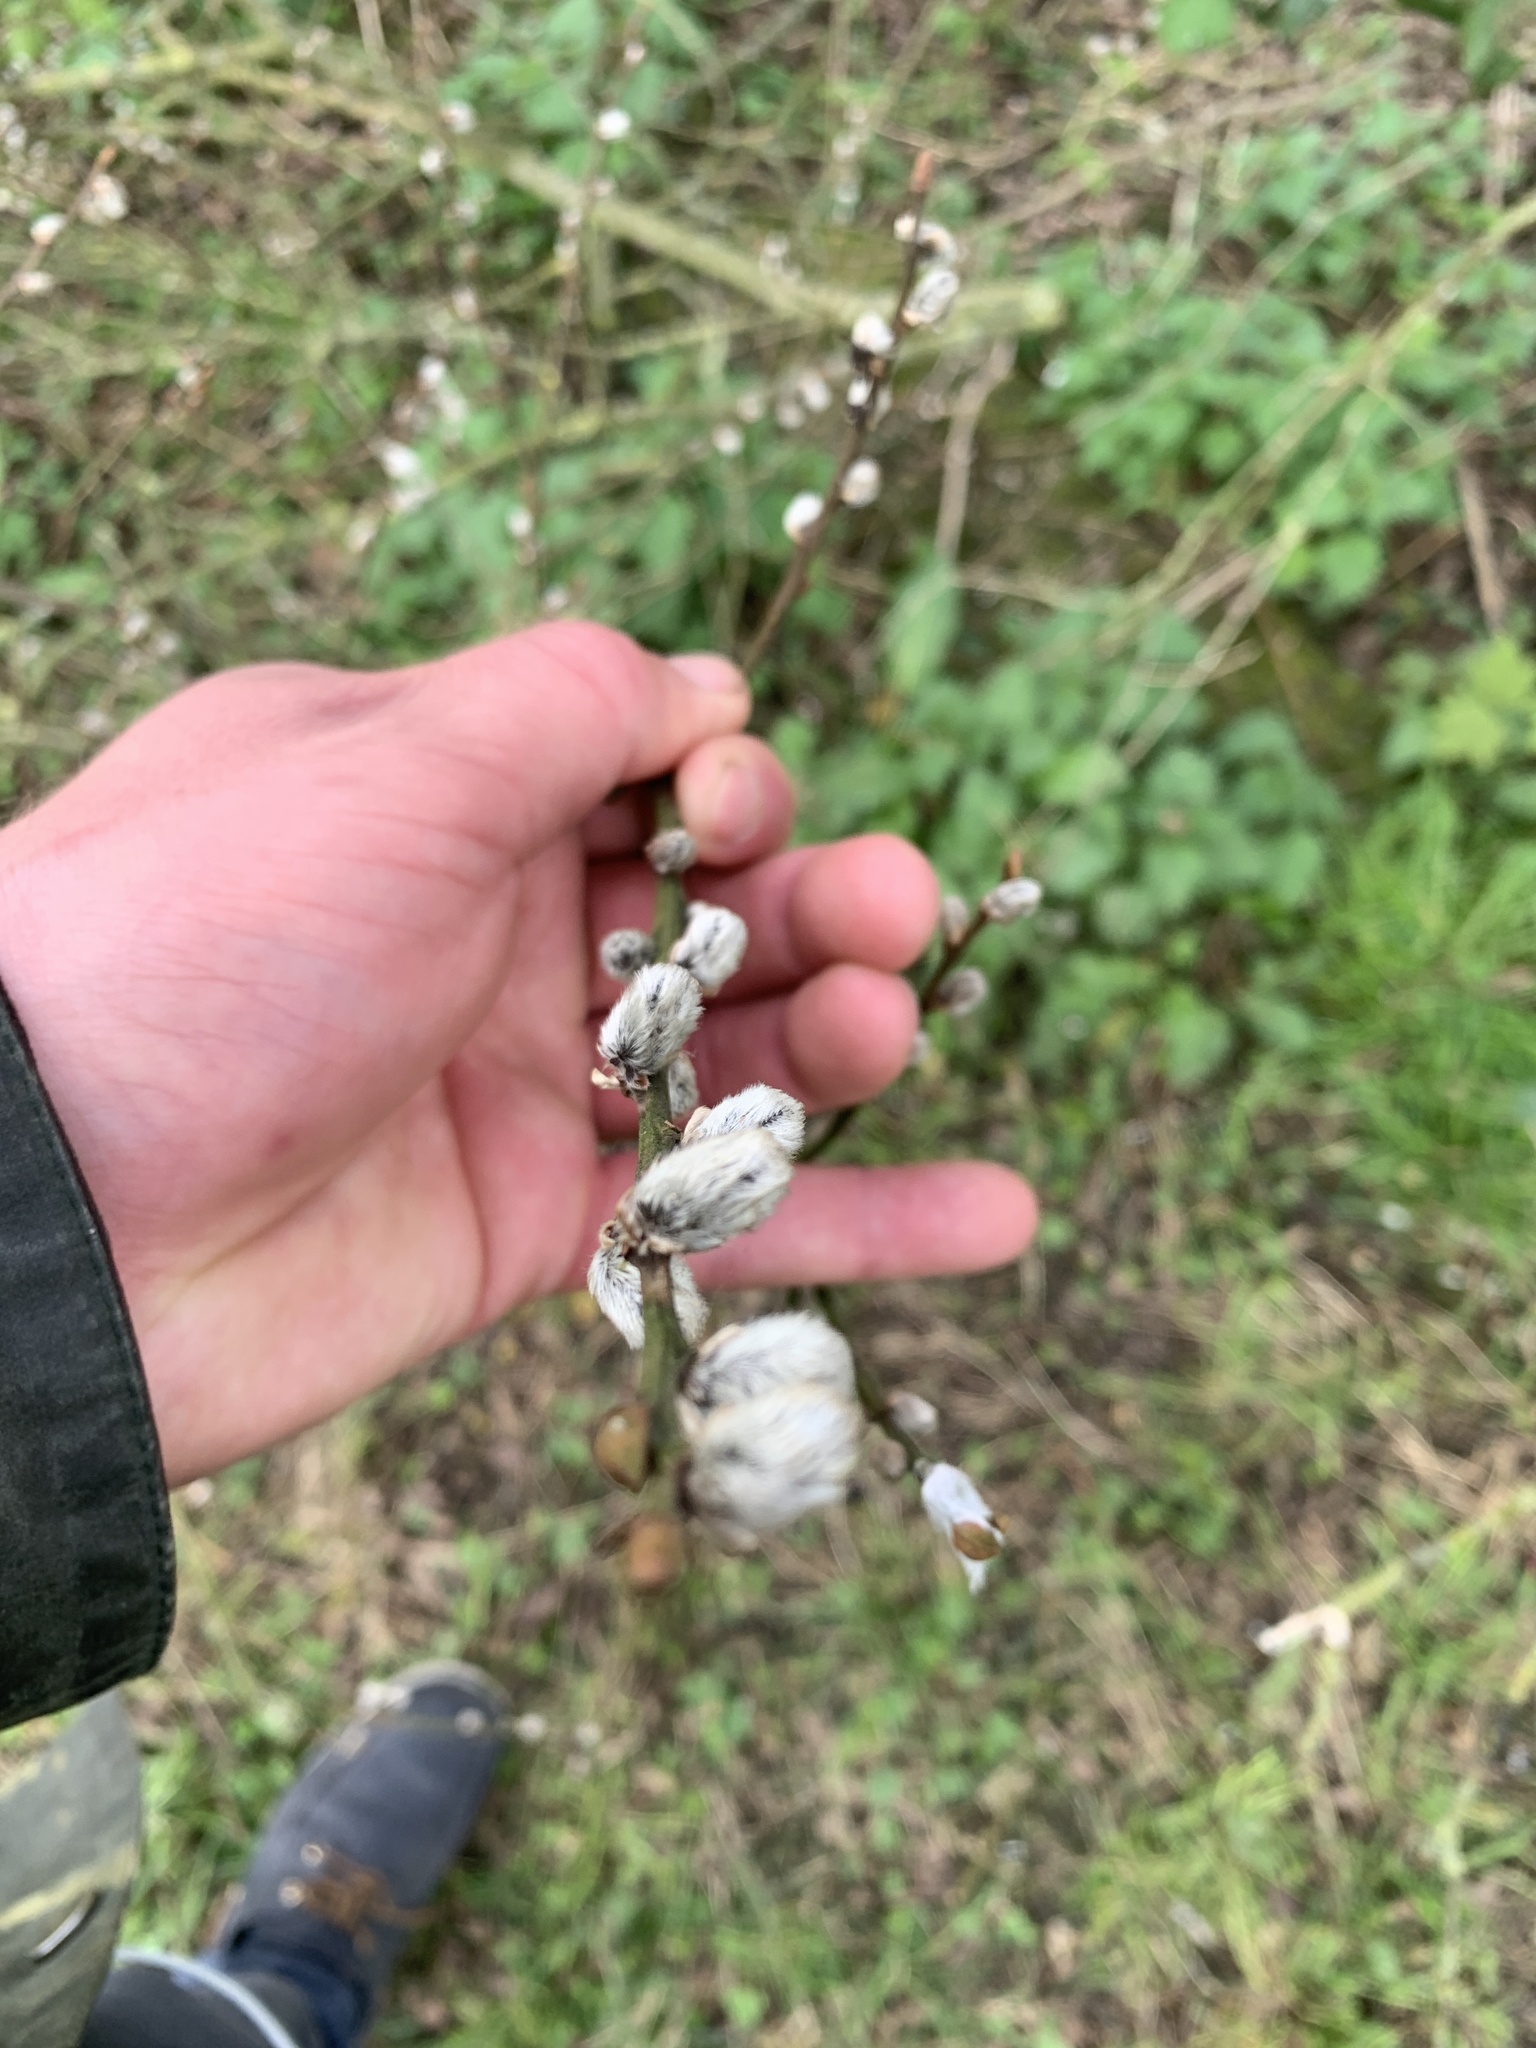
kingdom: Plantae
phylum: Tracheophyta
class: Magnoliopsida
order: Malpighiales
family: Salicaceae
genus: Salix
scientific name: Salix caprea
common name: Goat willow
